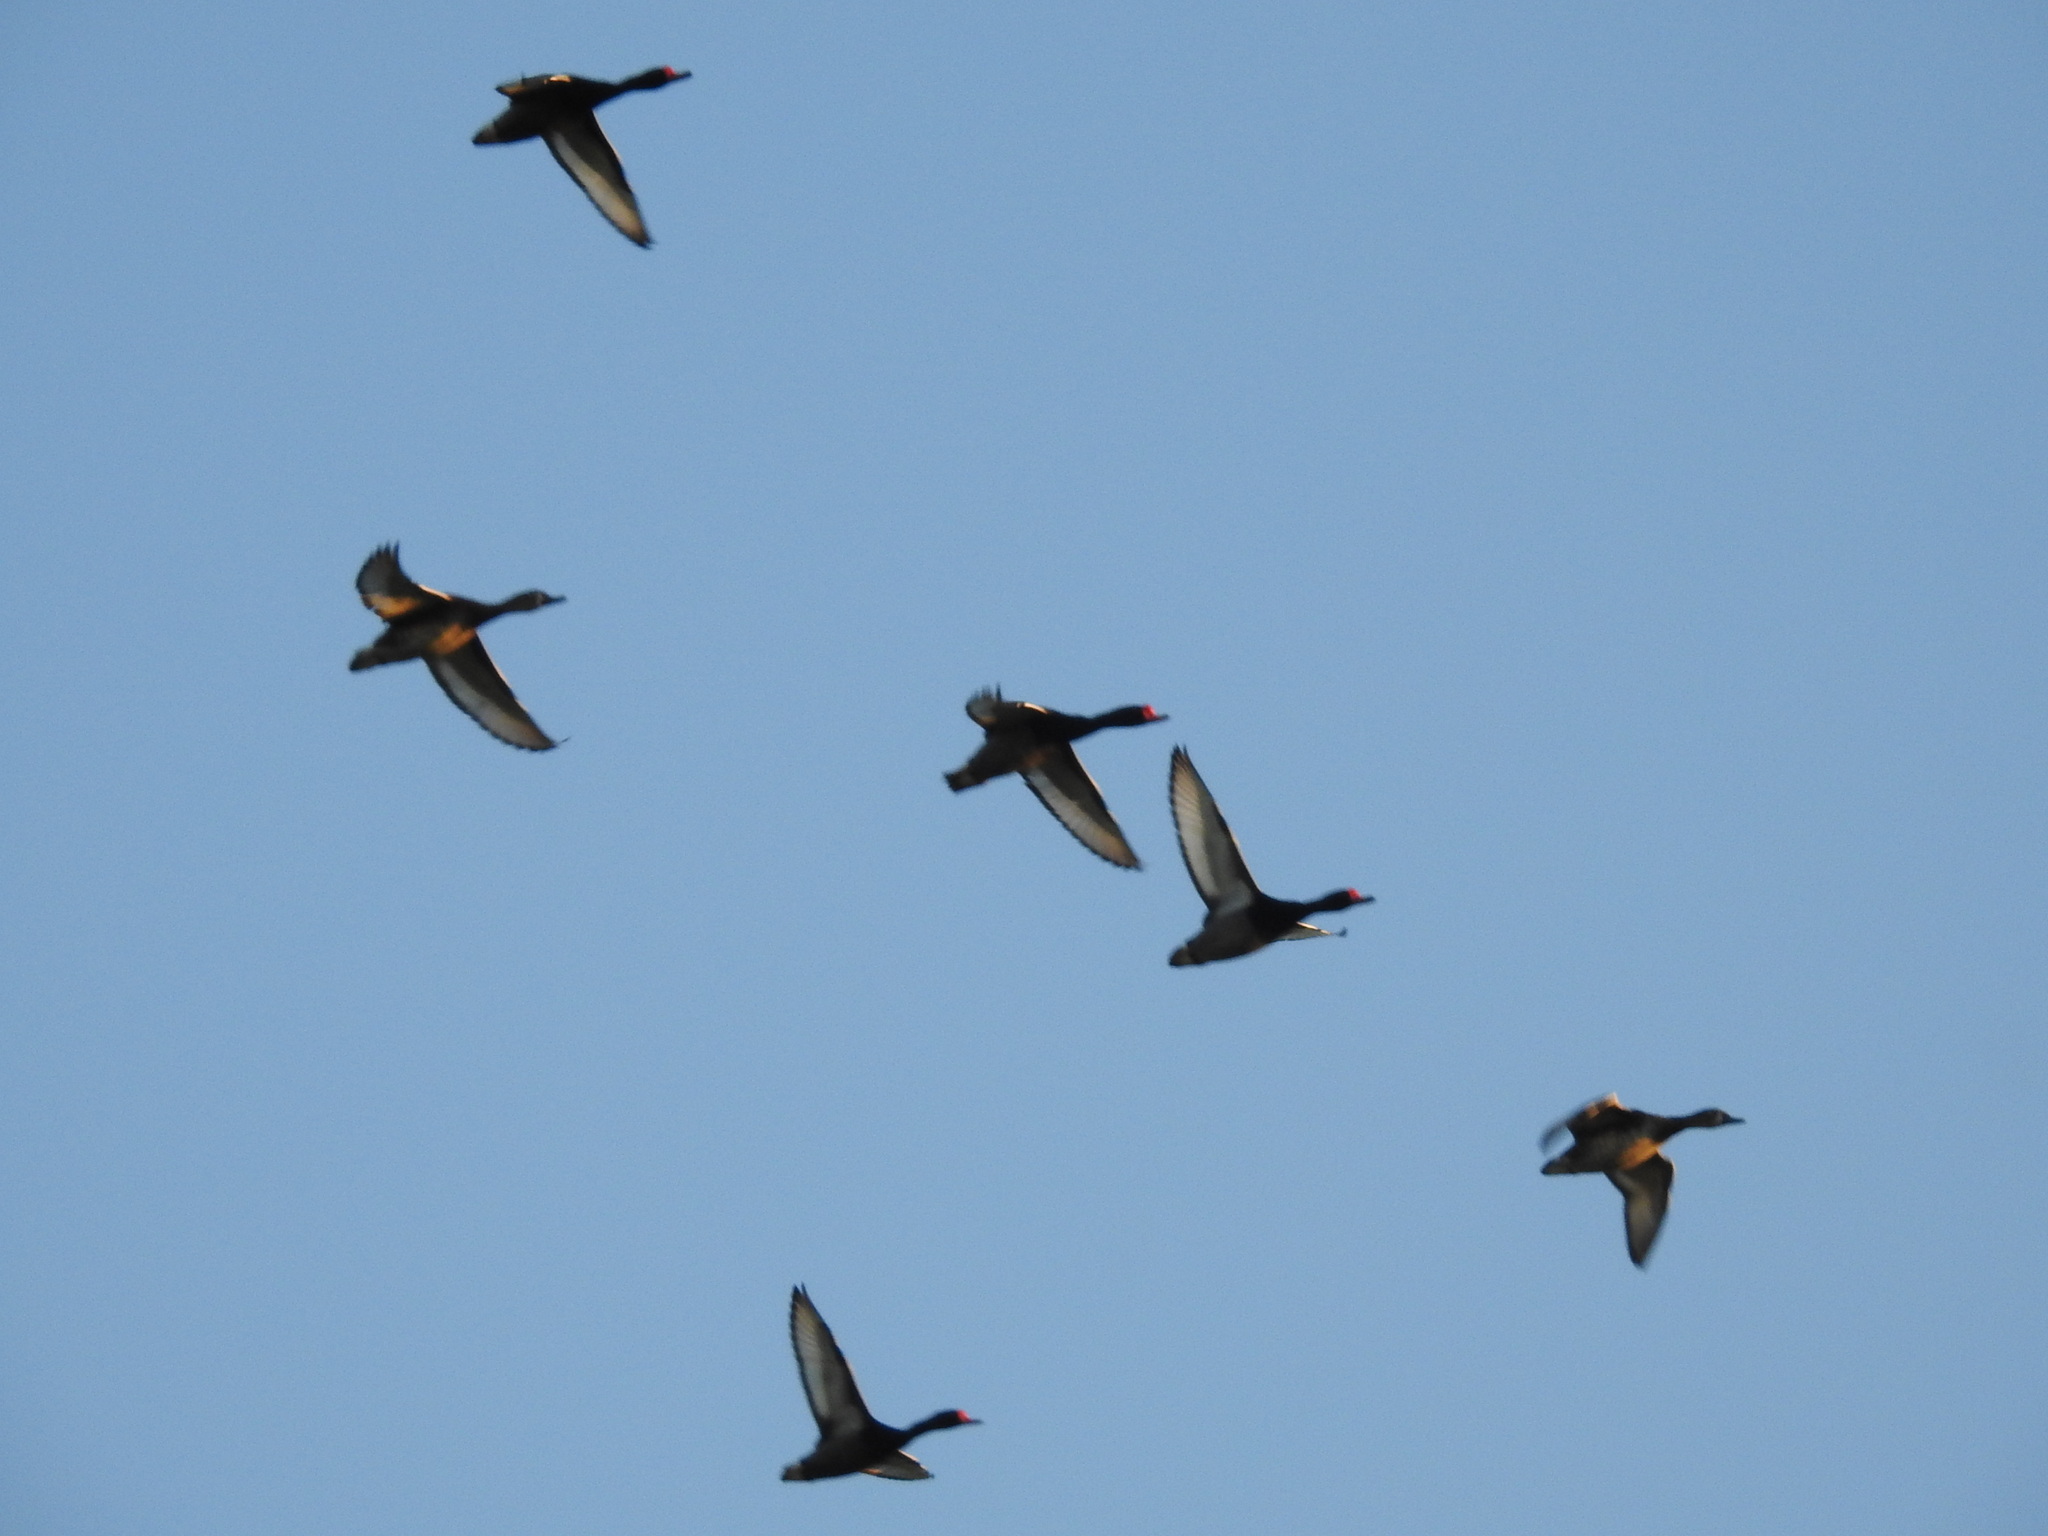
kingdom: Animalia
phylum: Chordata
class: Aves
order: Anseriformes
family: Anatidae
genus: Netta
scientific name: Netta peposaca
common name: Rosy-billed pochard
